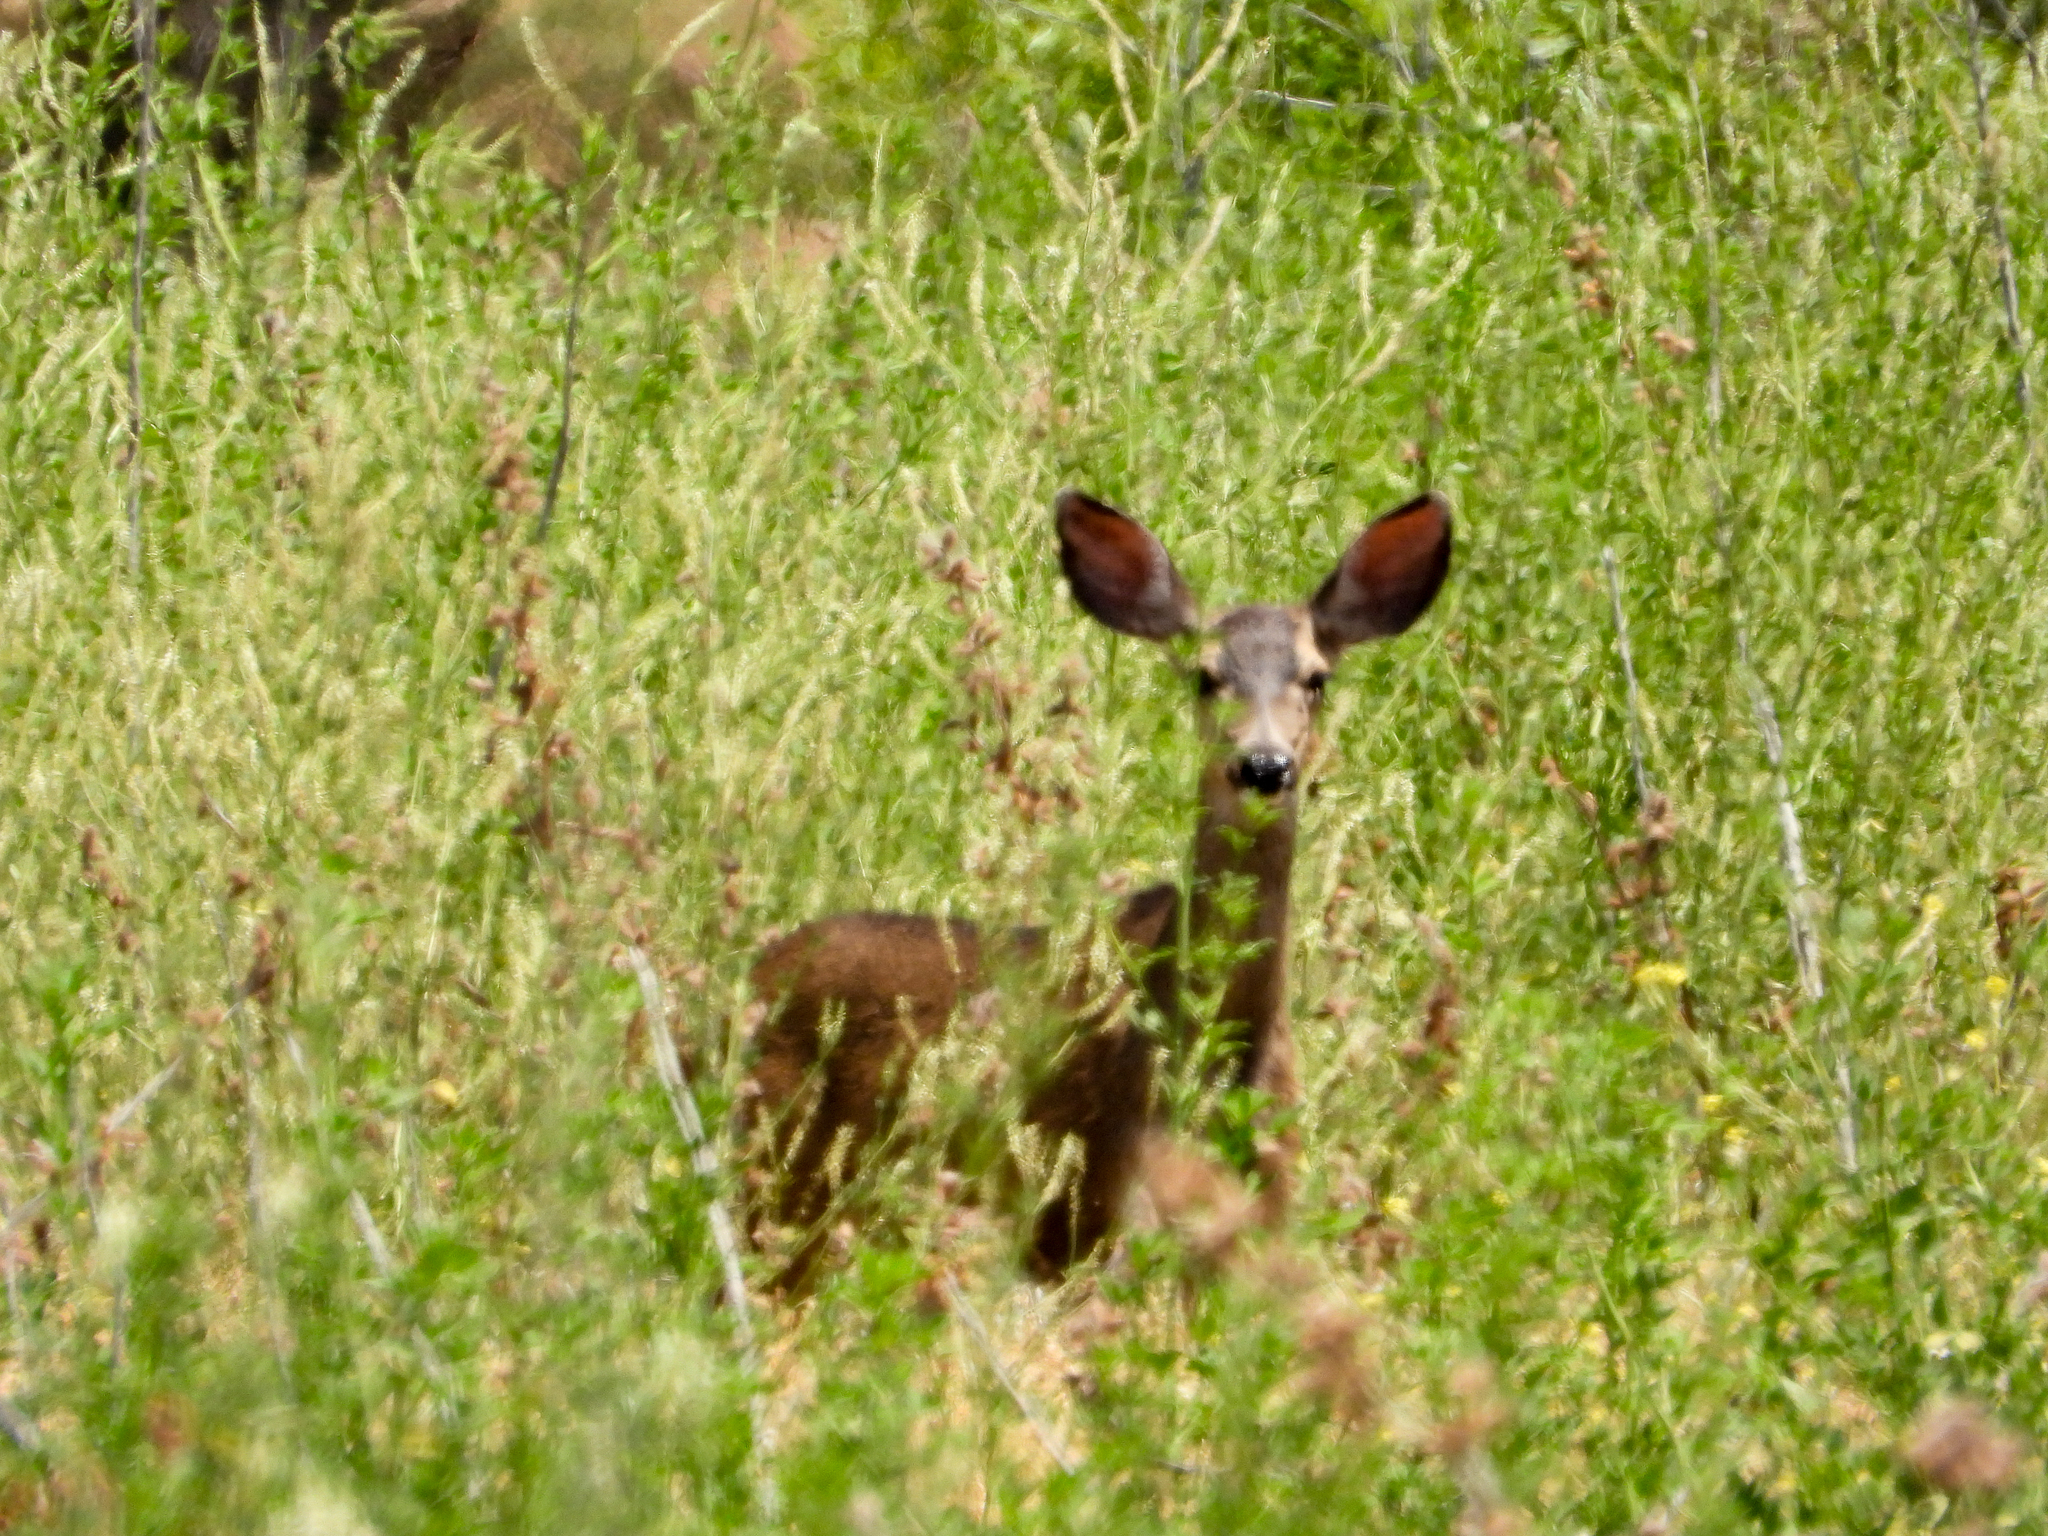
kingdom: Animalia
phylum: Chordata
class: Mammalia
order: Artiodactyla
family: Cervidae
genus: Odocoileus
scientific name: Odocoileus hemionus
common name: Mule deer
